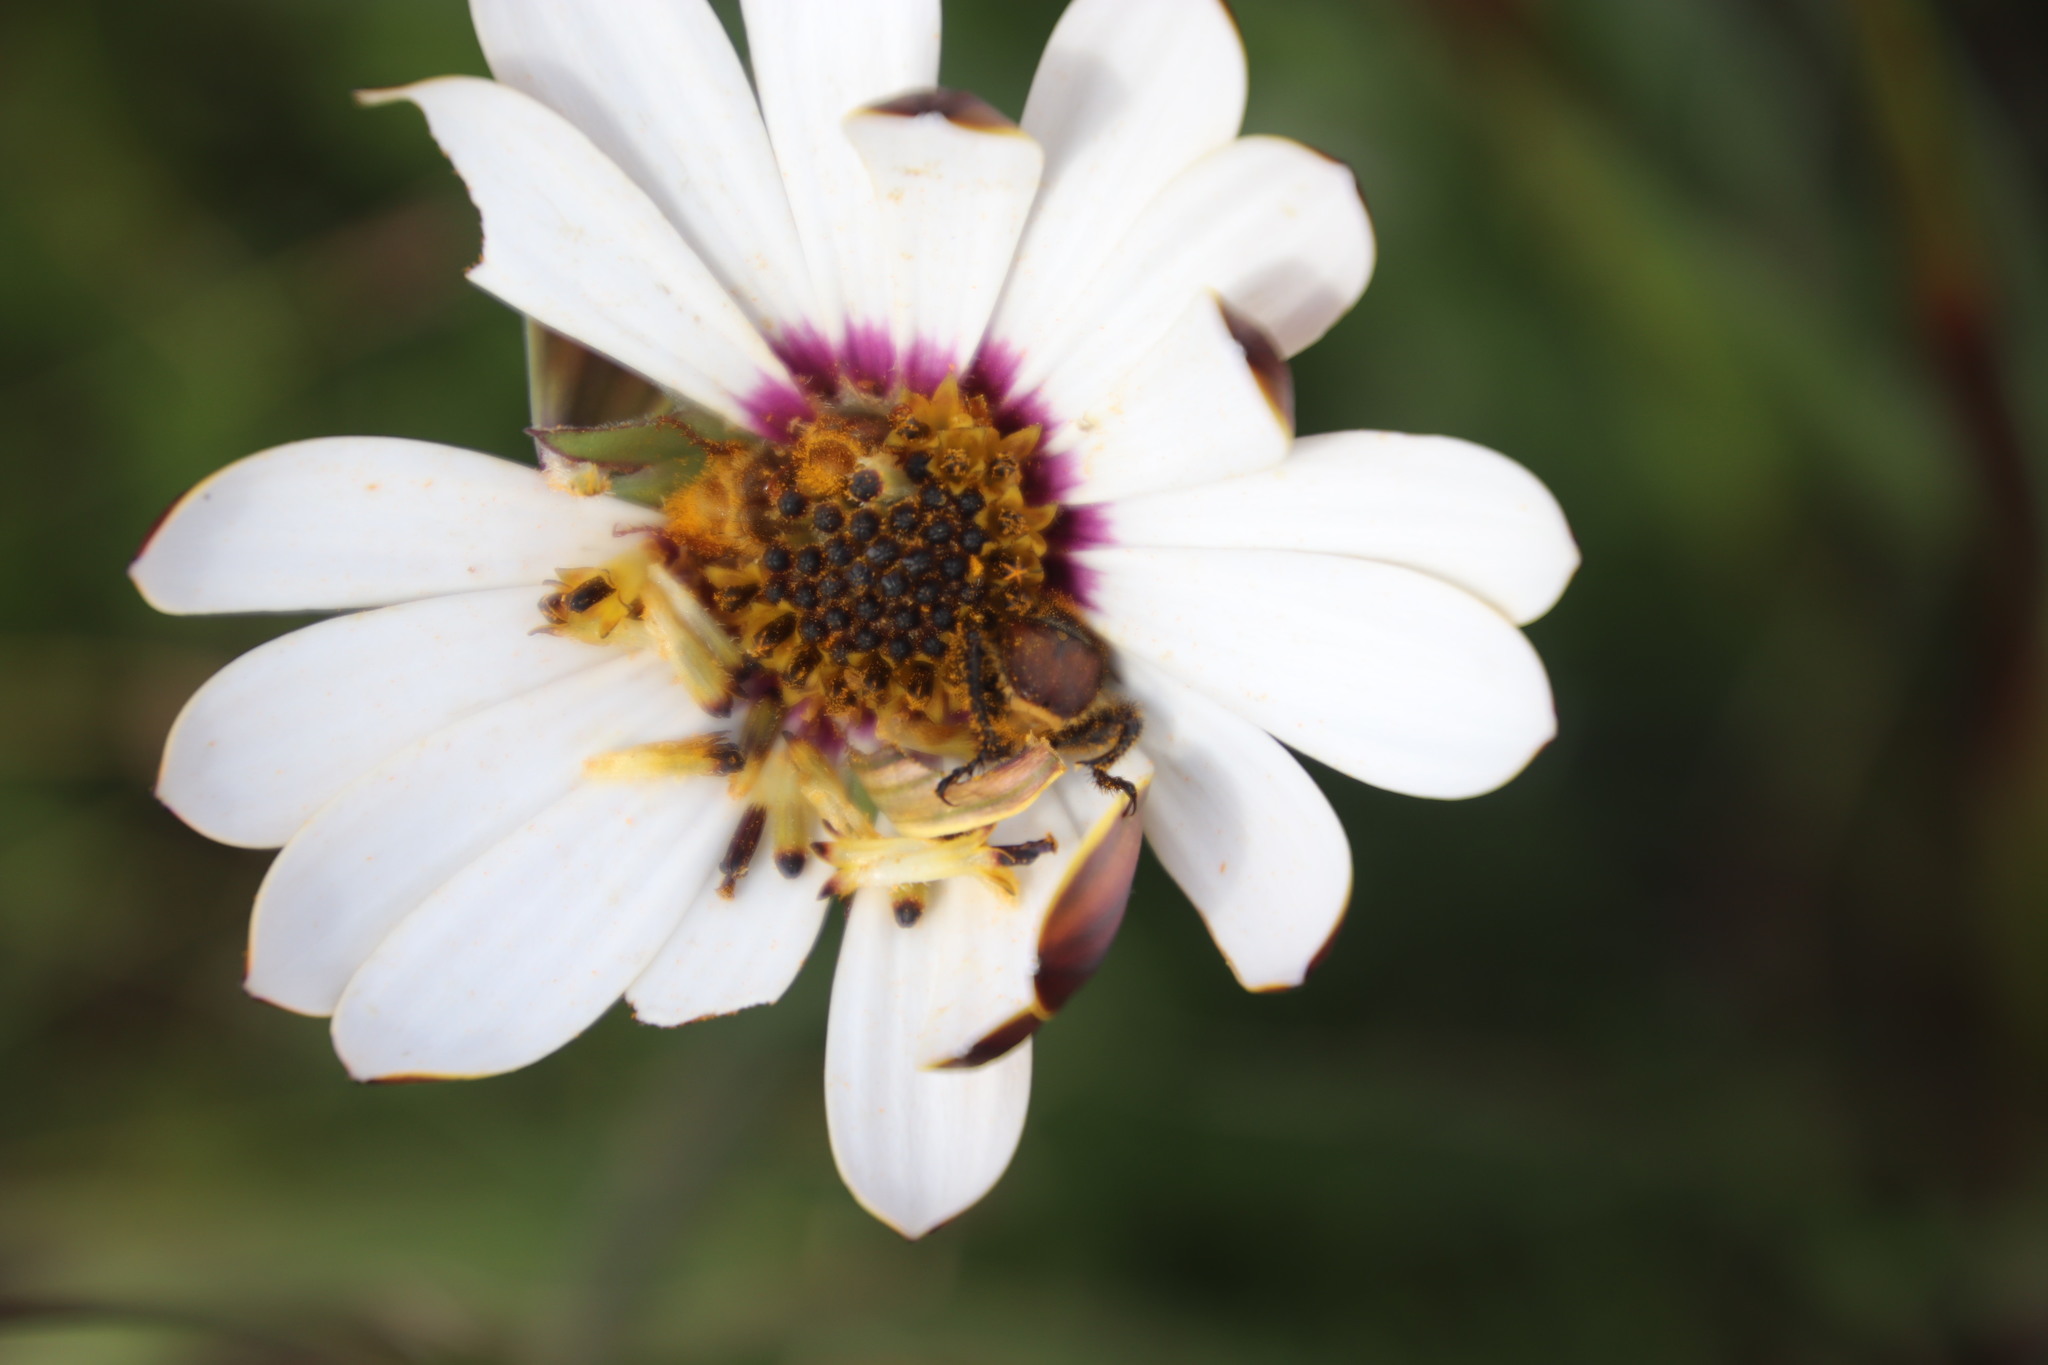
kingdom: Plantae
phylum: Tracheophyta
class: Magnoliopsida
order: Asterales
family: Asteraceae
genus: Dimorphotheca
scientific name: Dimorphotheca nudicaulis
